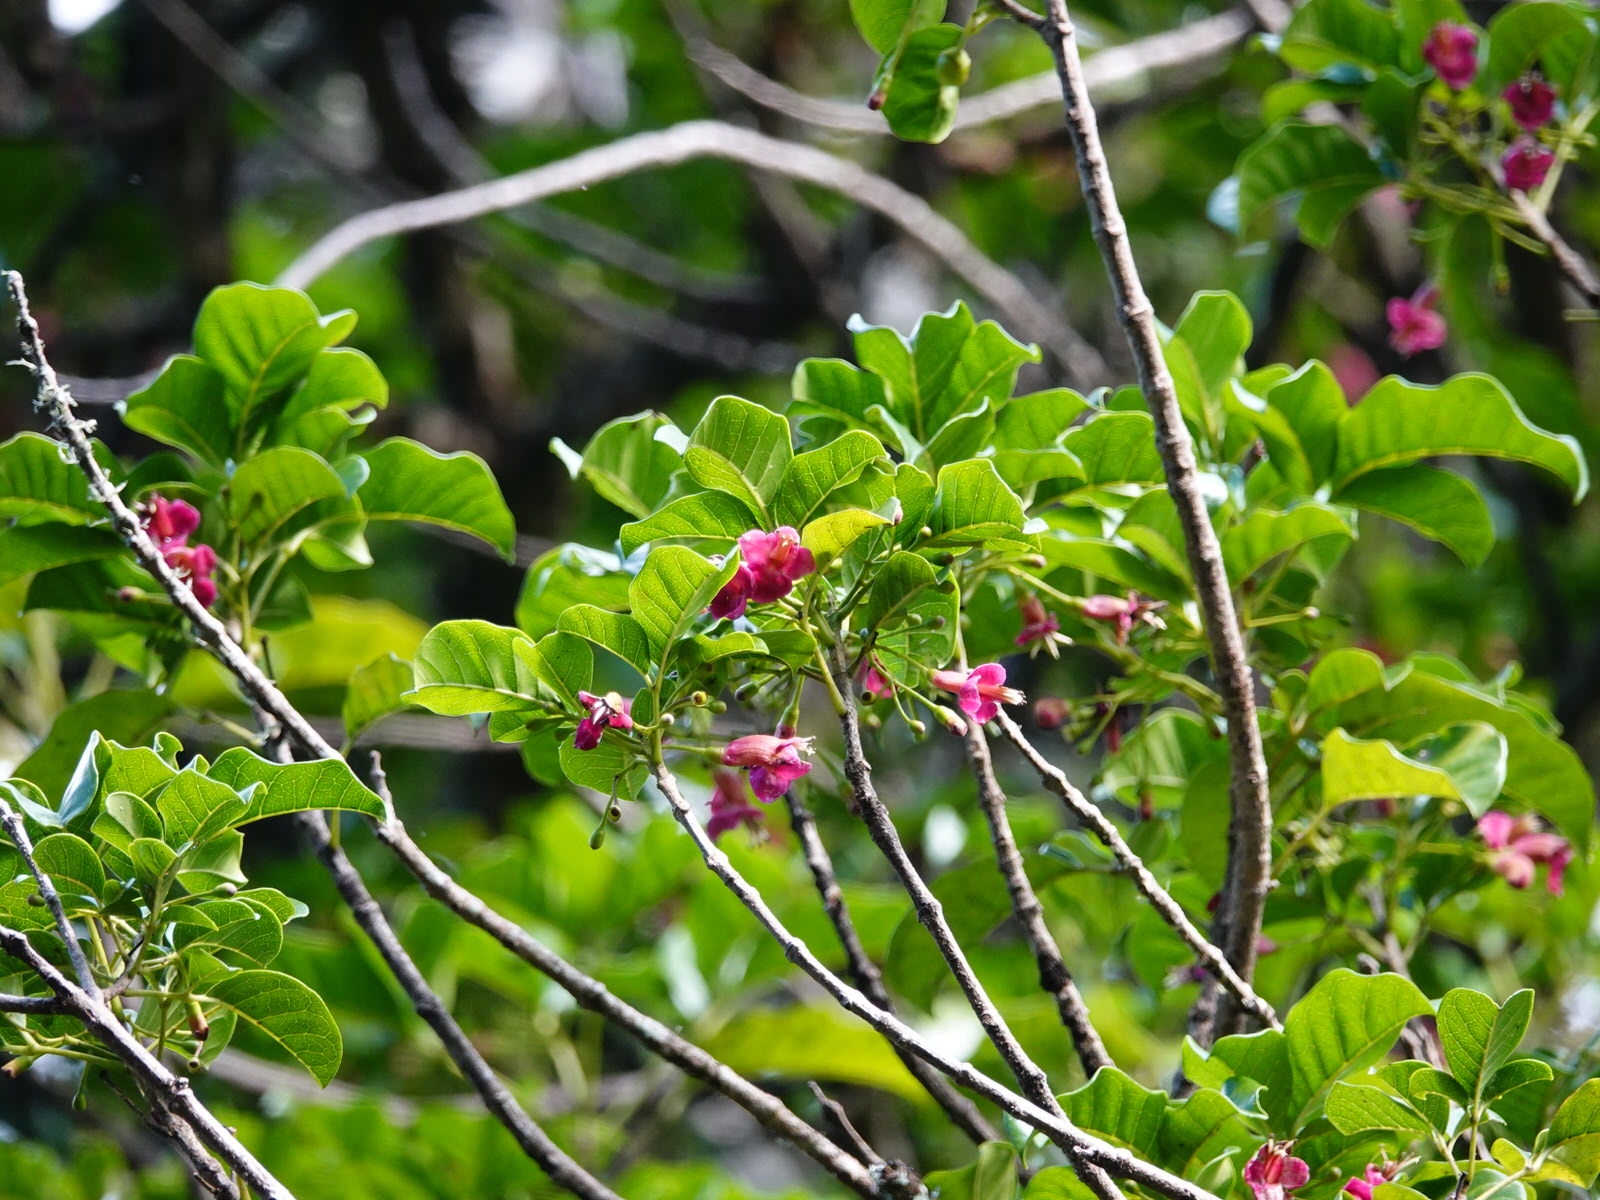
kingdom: Plantae
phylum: Tracheophyta
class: Magnoliopsida
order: Lamiales
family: Lamiaceae
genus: Vitex
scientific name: Vitex lucens
